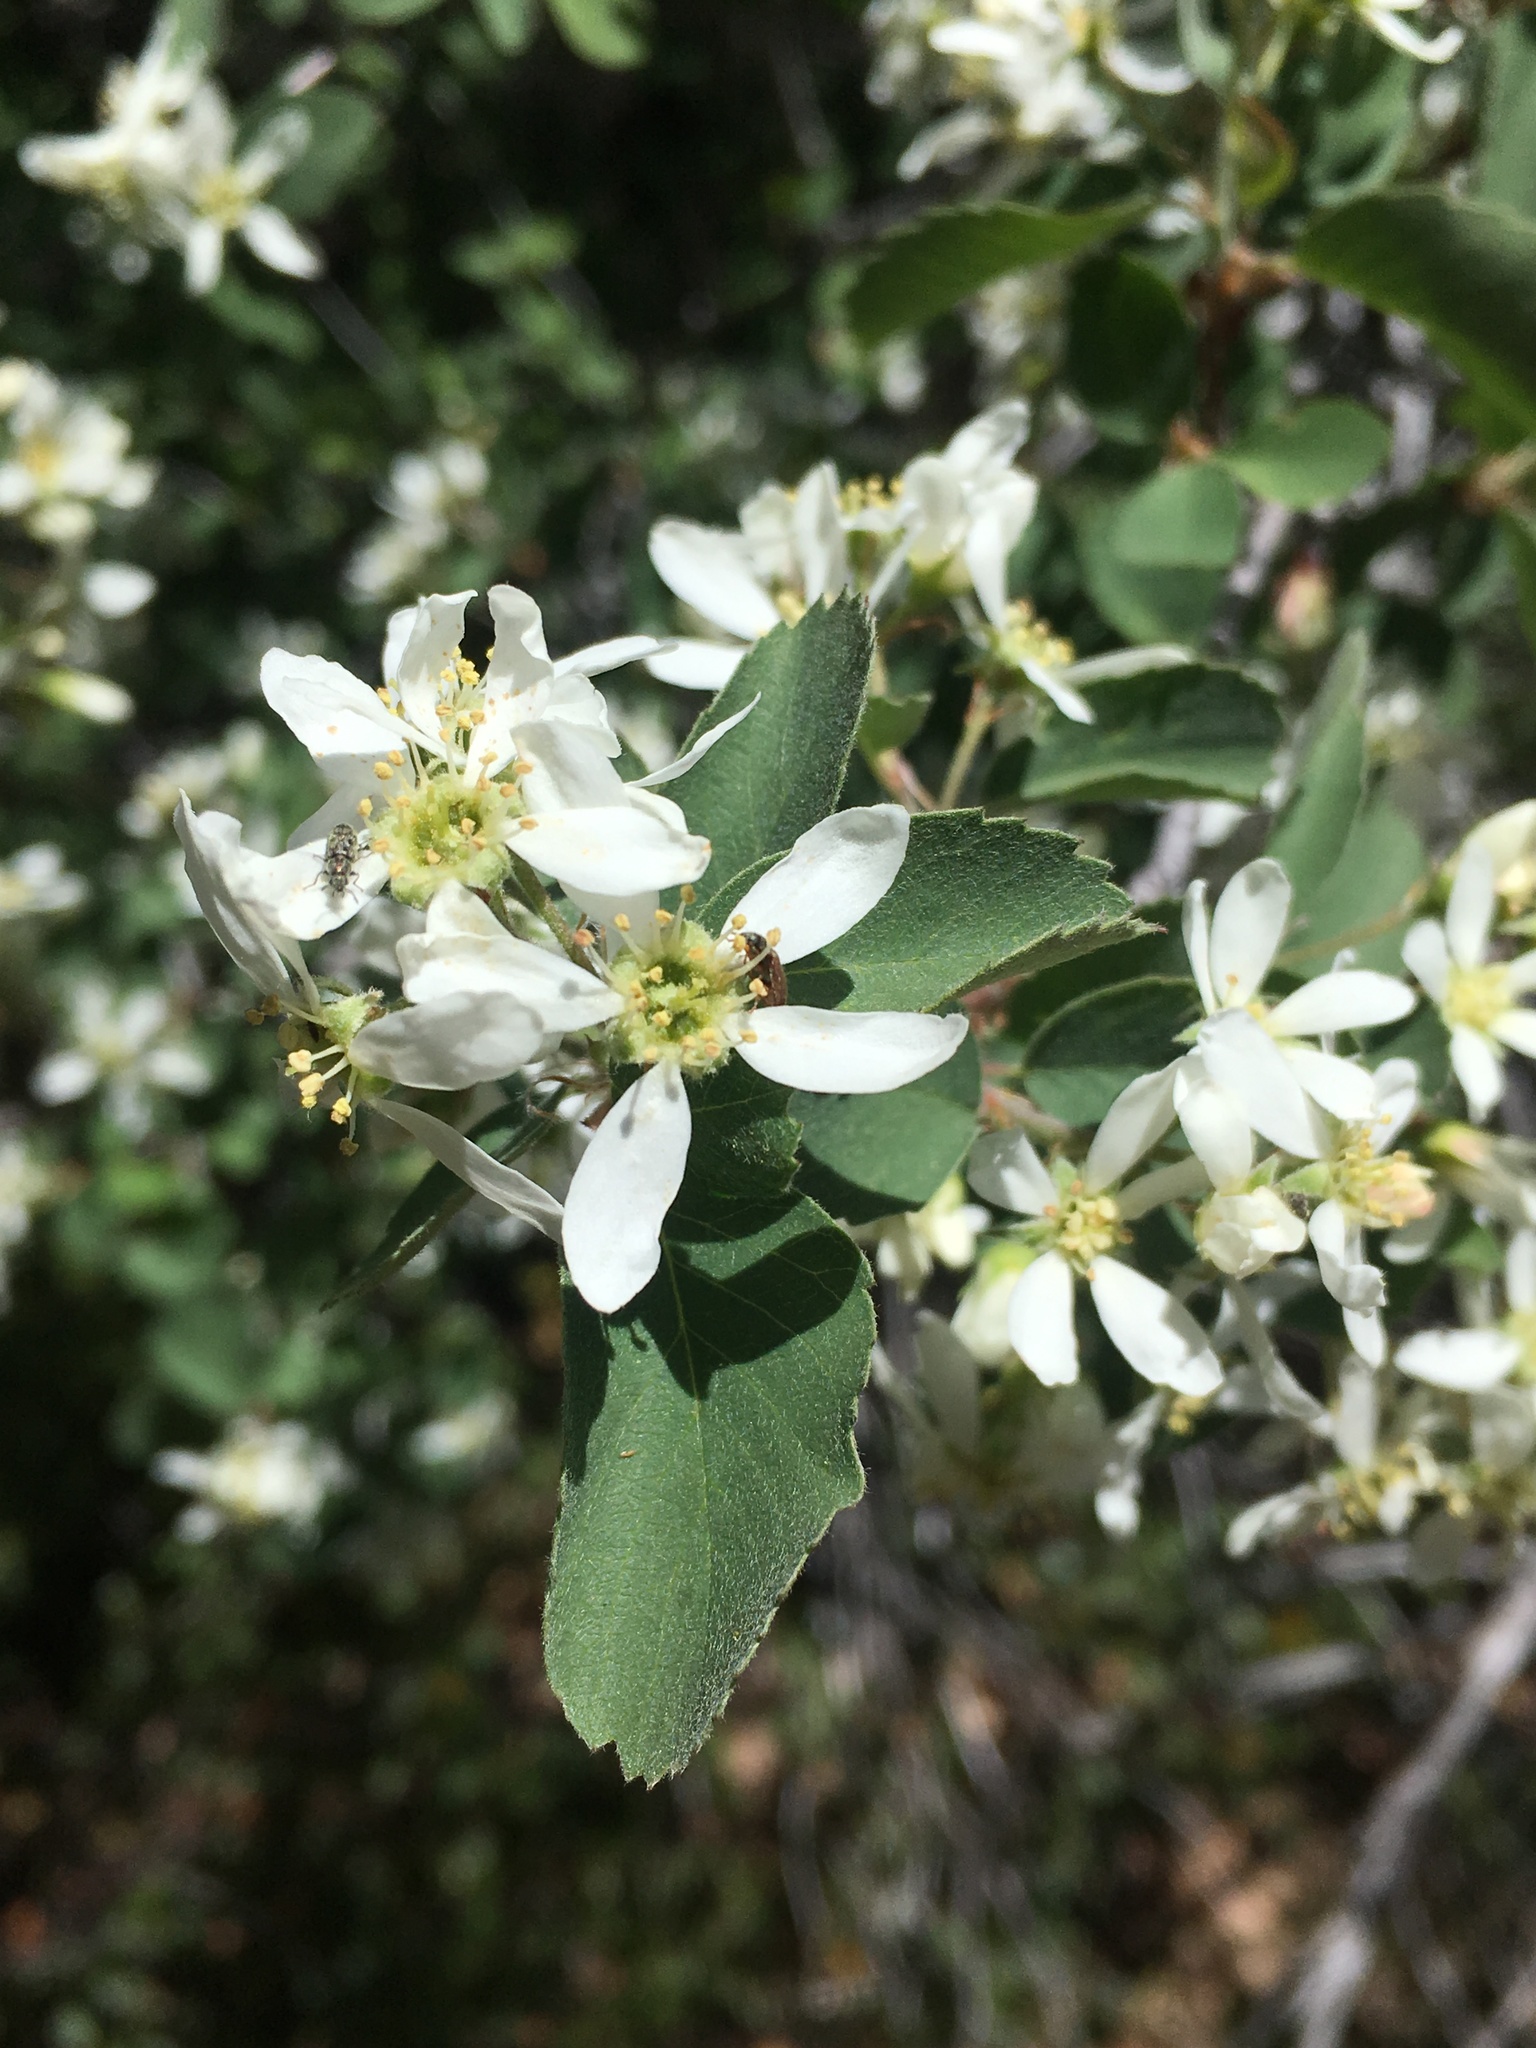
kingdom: Plantae
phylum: Tracheophyta
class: Magnoliopsida
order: Rosales
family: Rosaceae
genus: Amelanchier
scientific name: Amelanchier utahensis
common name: Utah serviceberry
